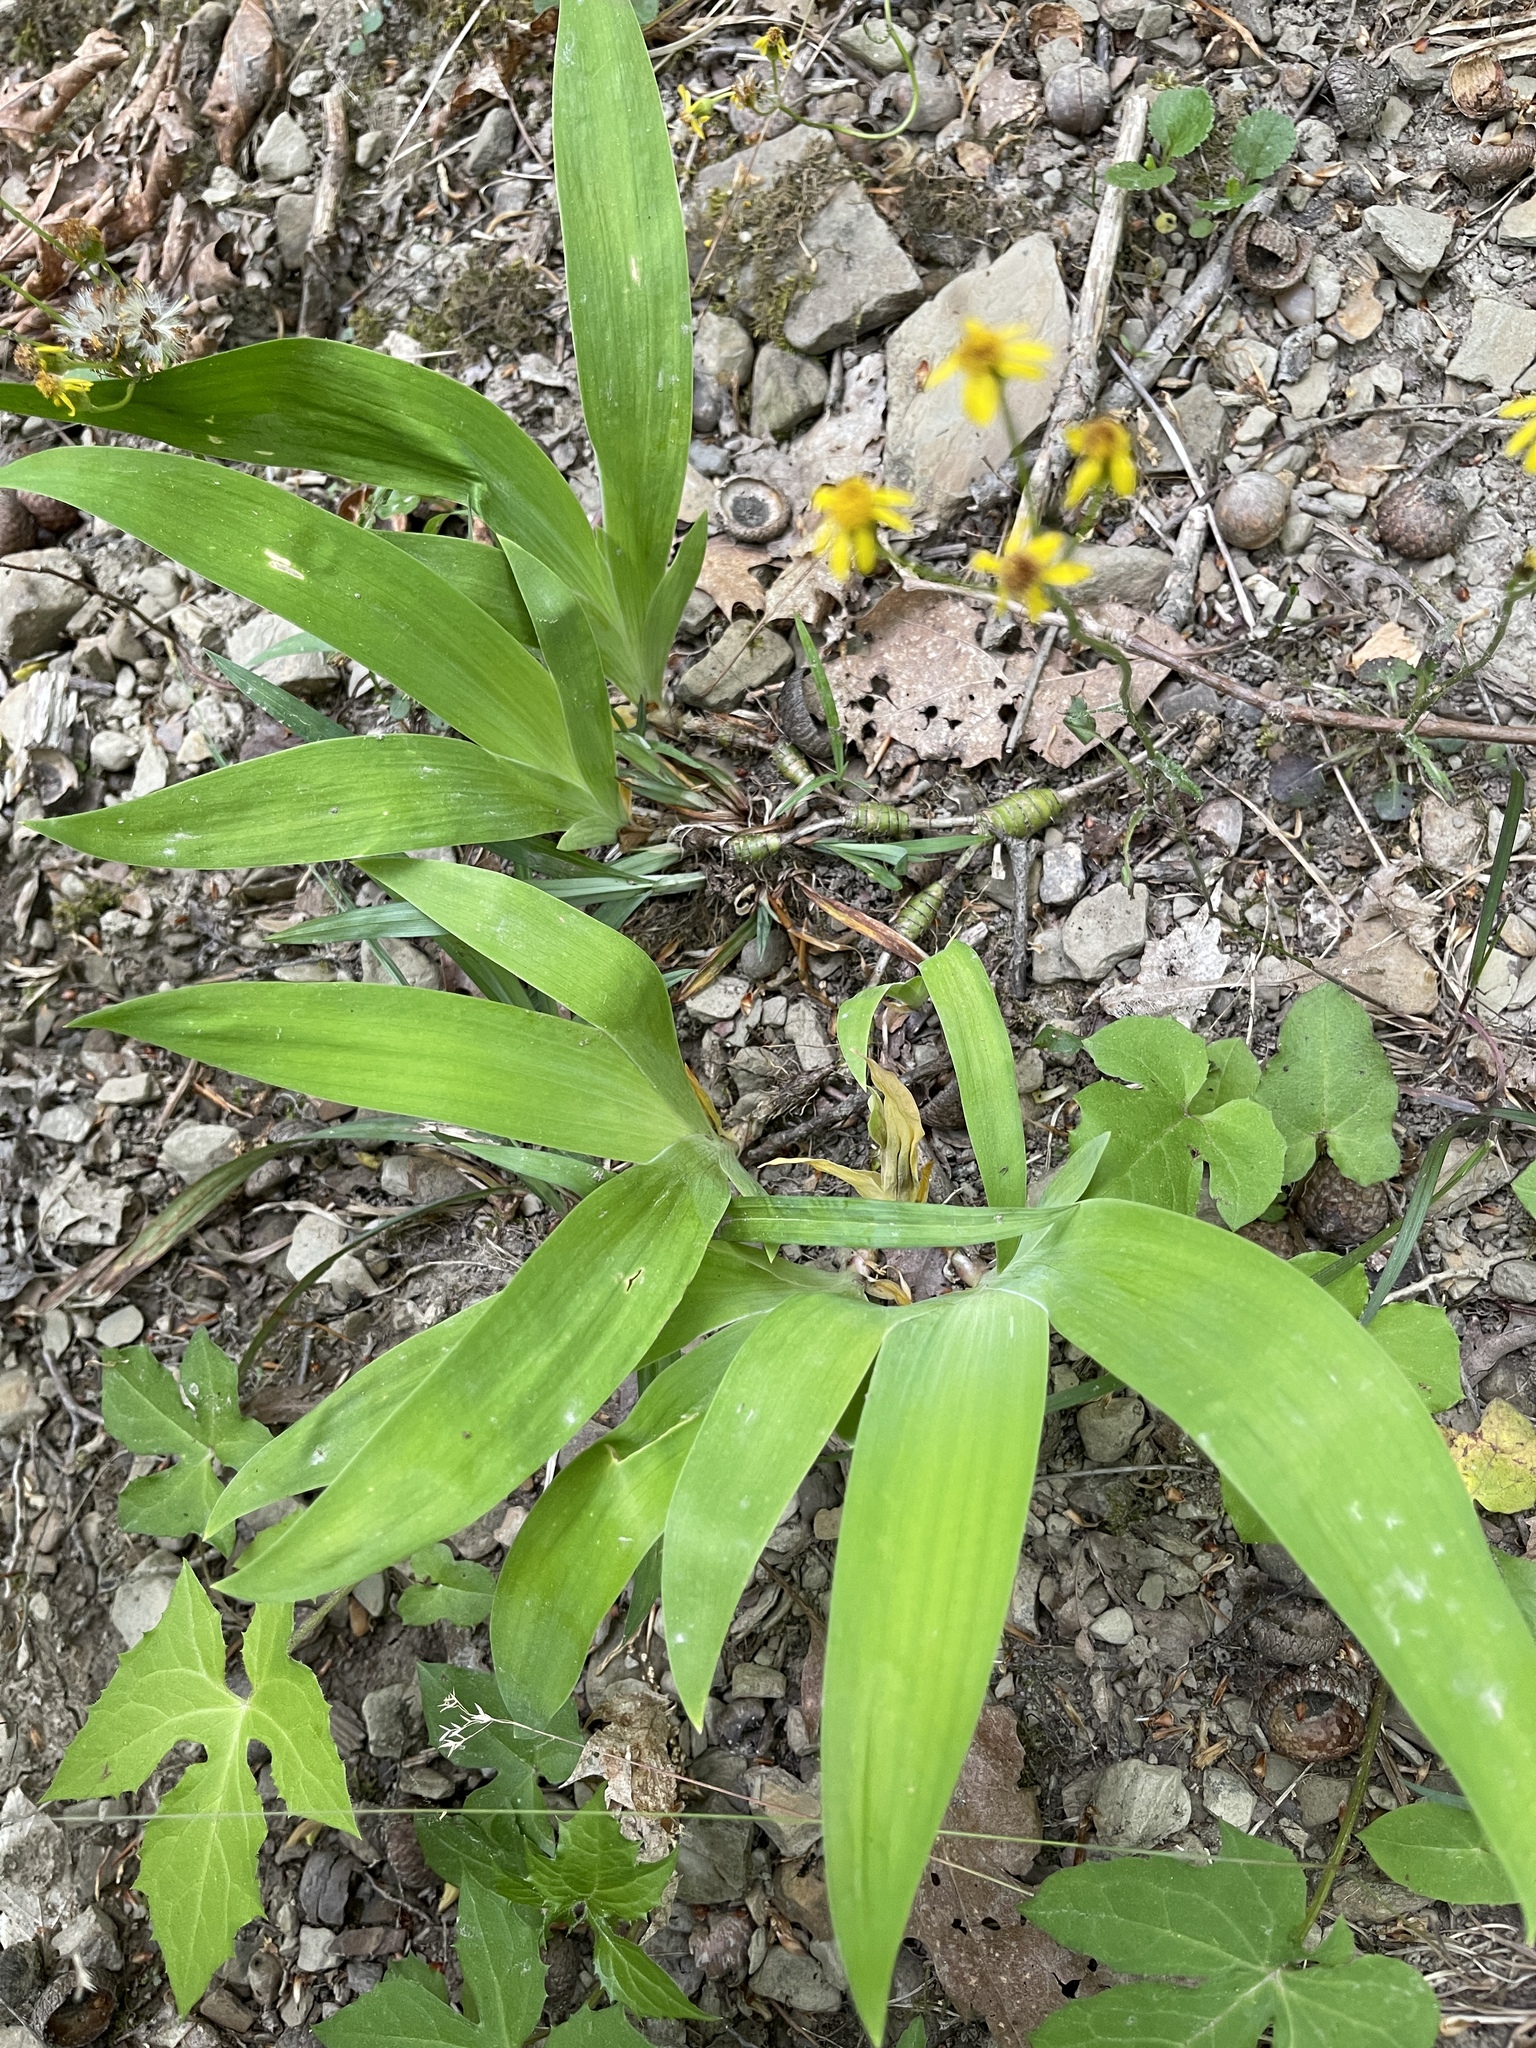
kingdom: Plantae
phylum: Tracheophyta
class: Liliopsida
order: Asparagales
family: Iridaceae
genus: Iris
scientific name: Iris cristata
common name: Crested iris
